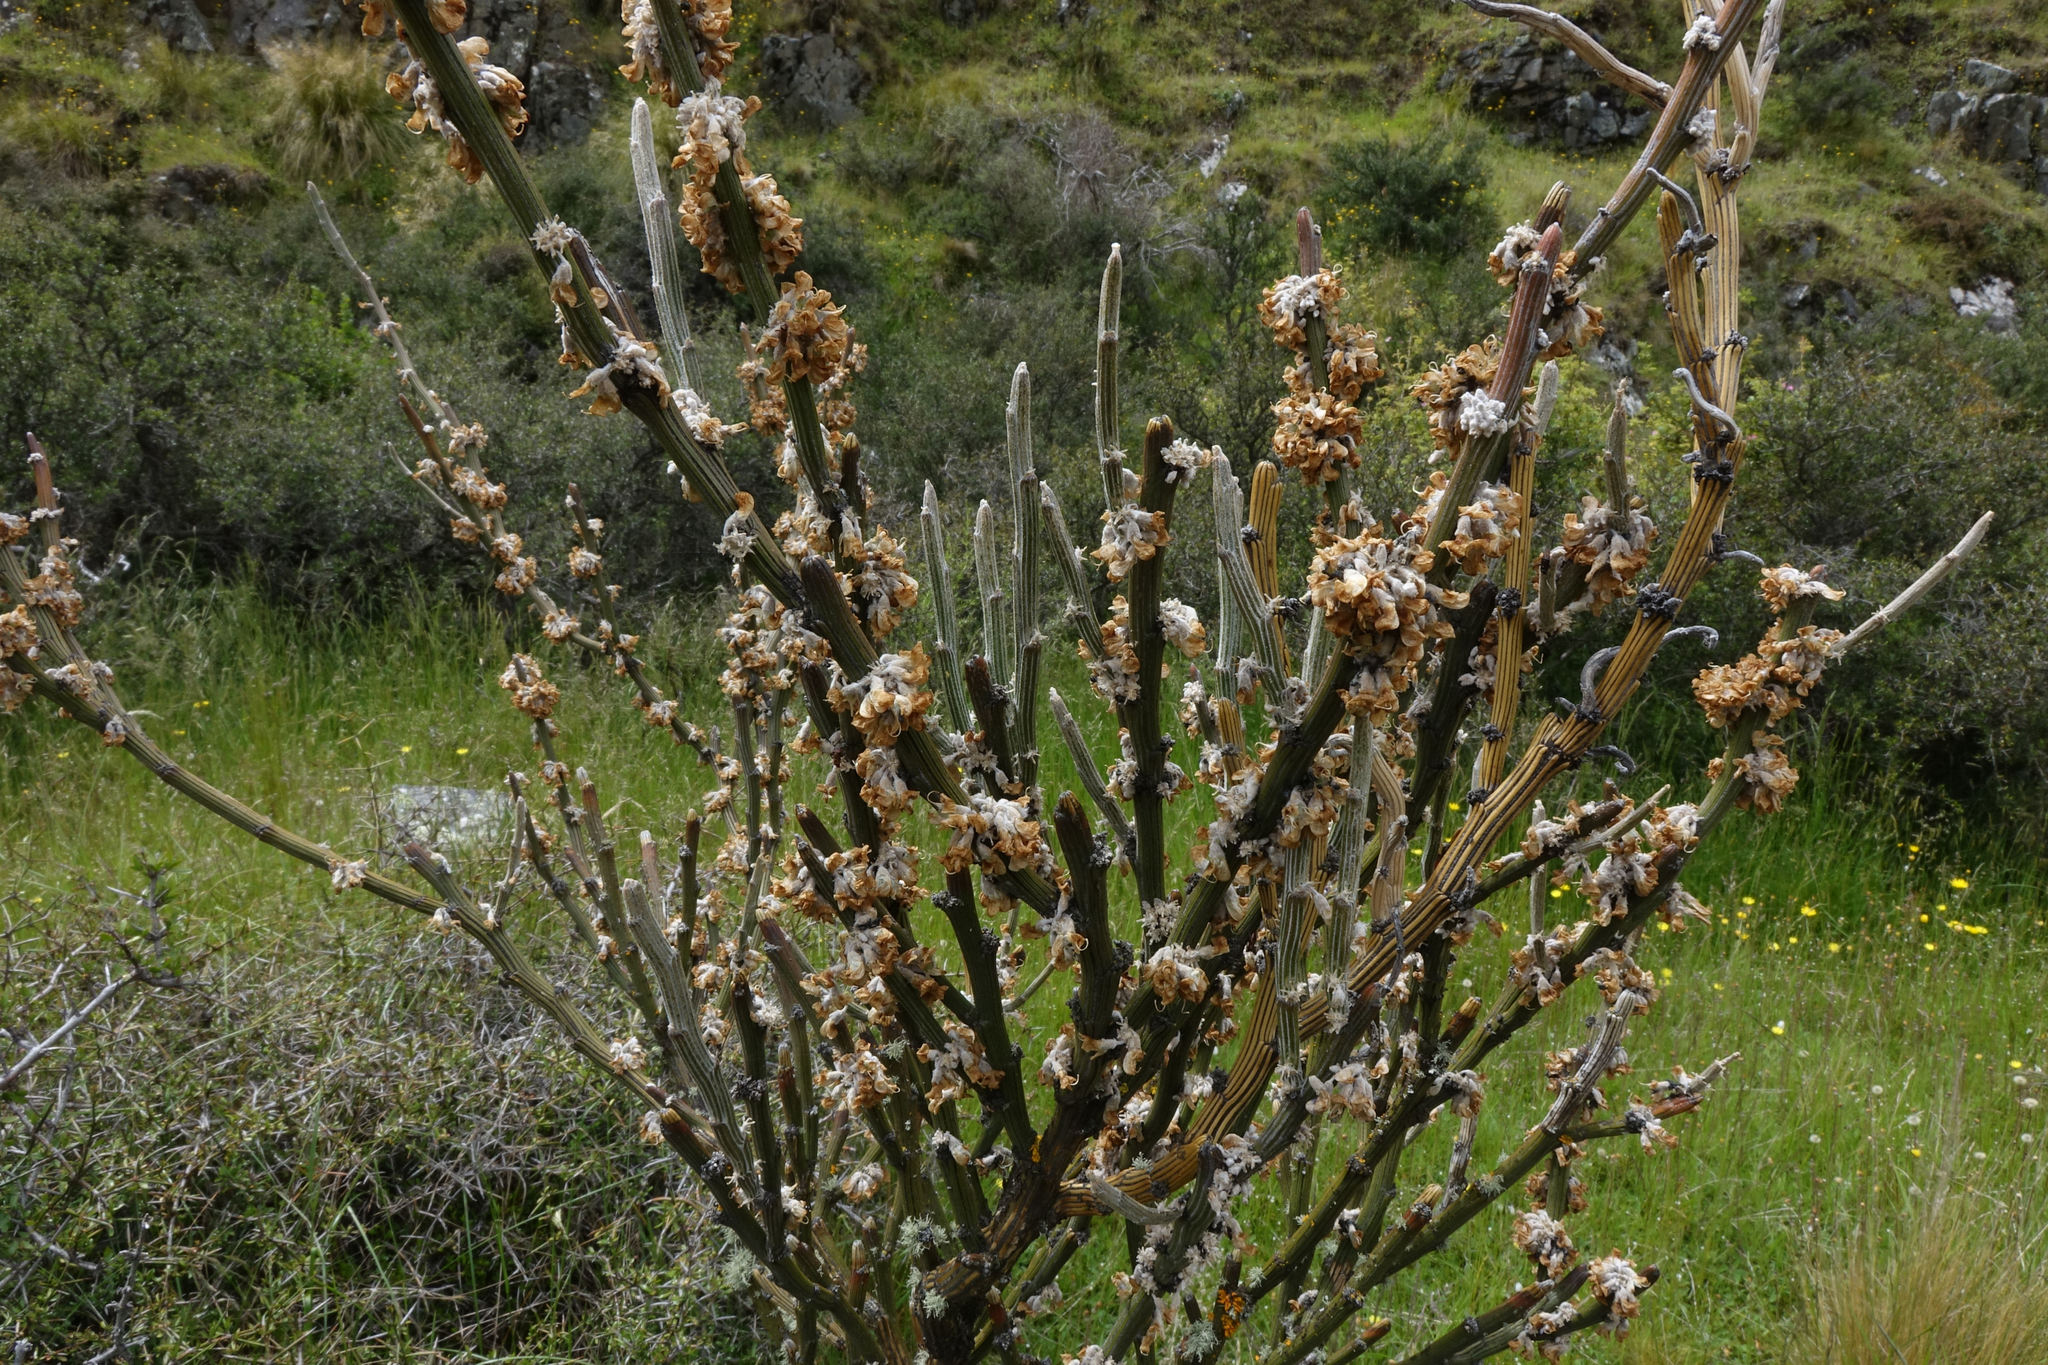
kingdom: Plantae
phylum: Tracheophyta
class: Magnoliopsida
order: Fabales
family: Fabaceae
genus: Carmichaelia
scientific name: Carmichaelia crassicaulis
